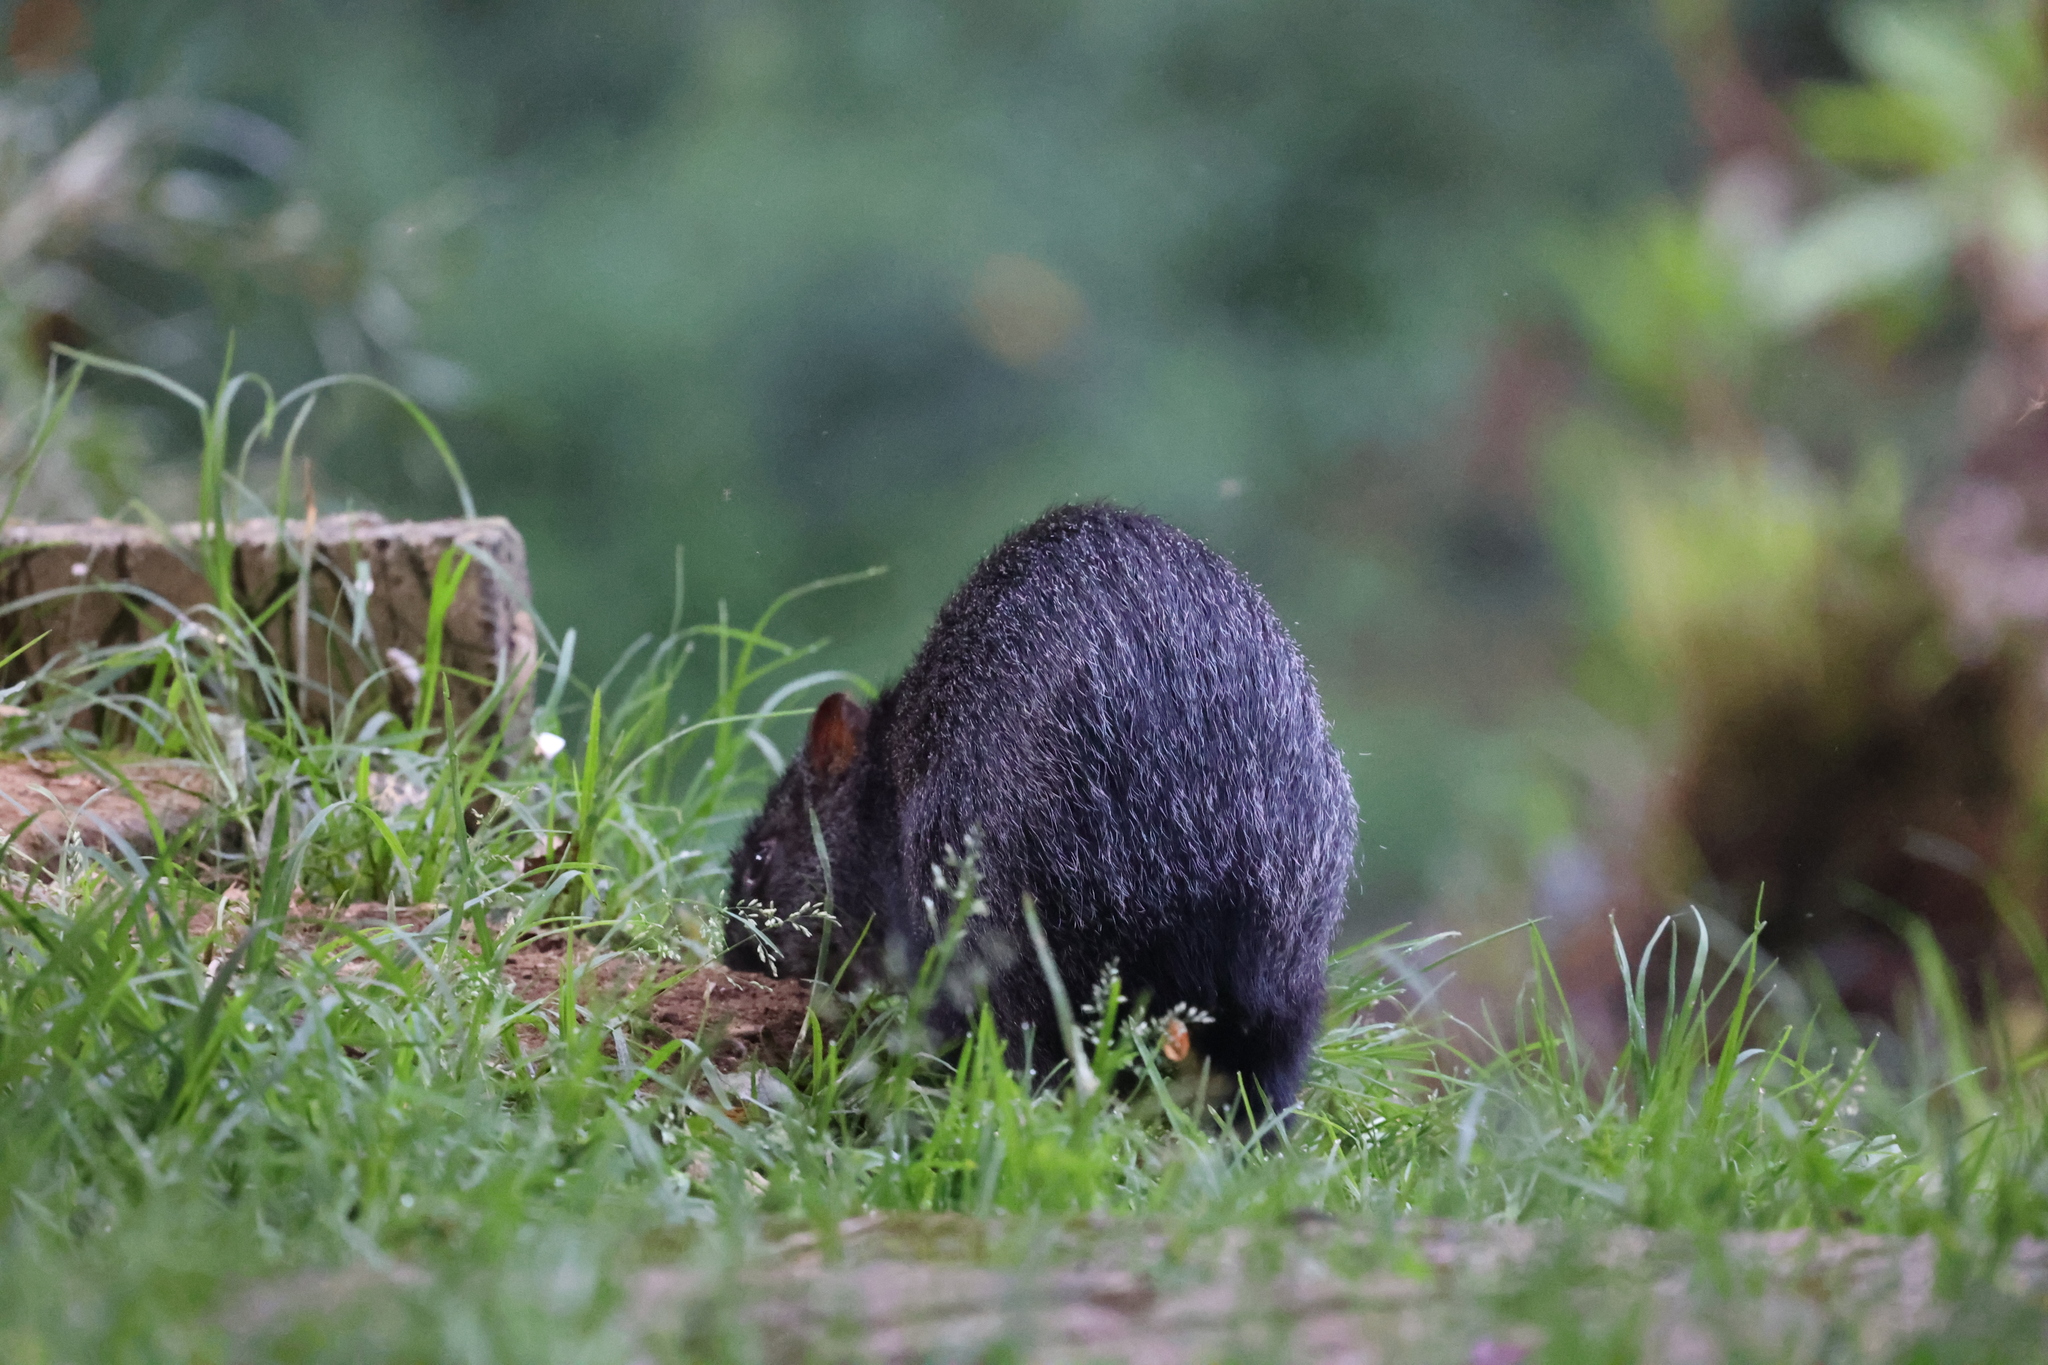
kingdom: Animalia
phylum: Chordata
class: Mammalia
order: Rodentia
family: Dasyproctidae
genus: Dasyprocta
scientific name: Dasyprocta fuliginosa
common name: Black agouti
